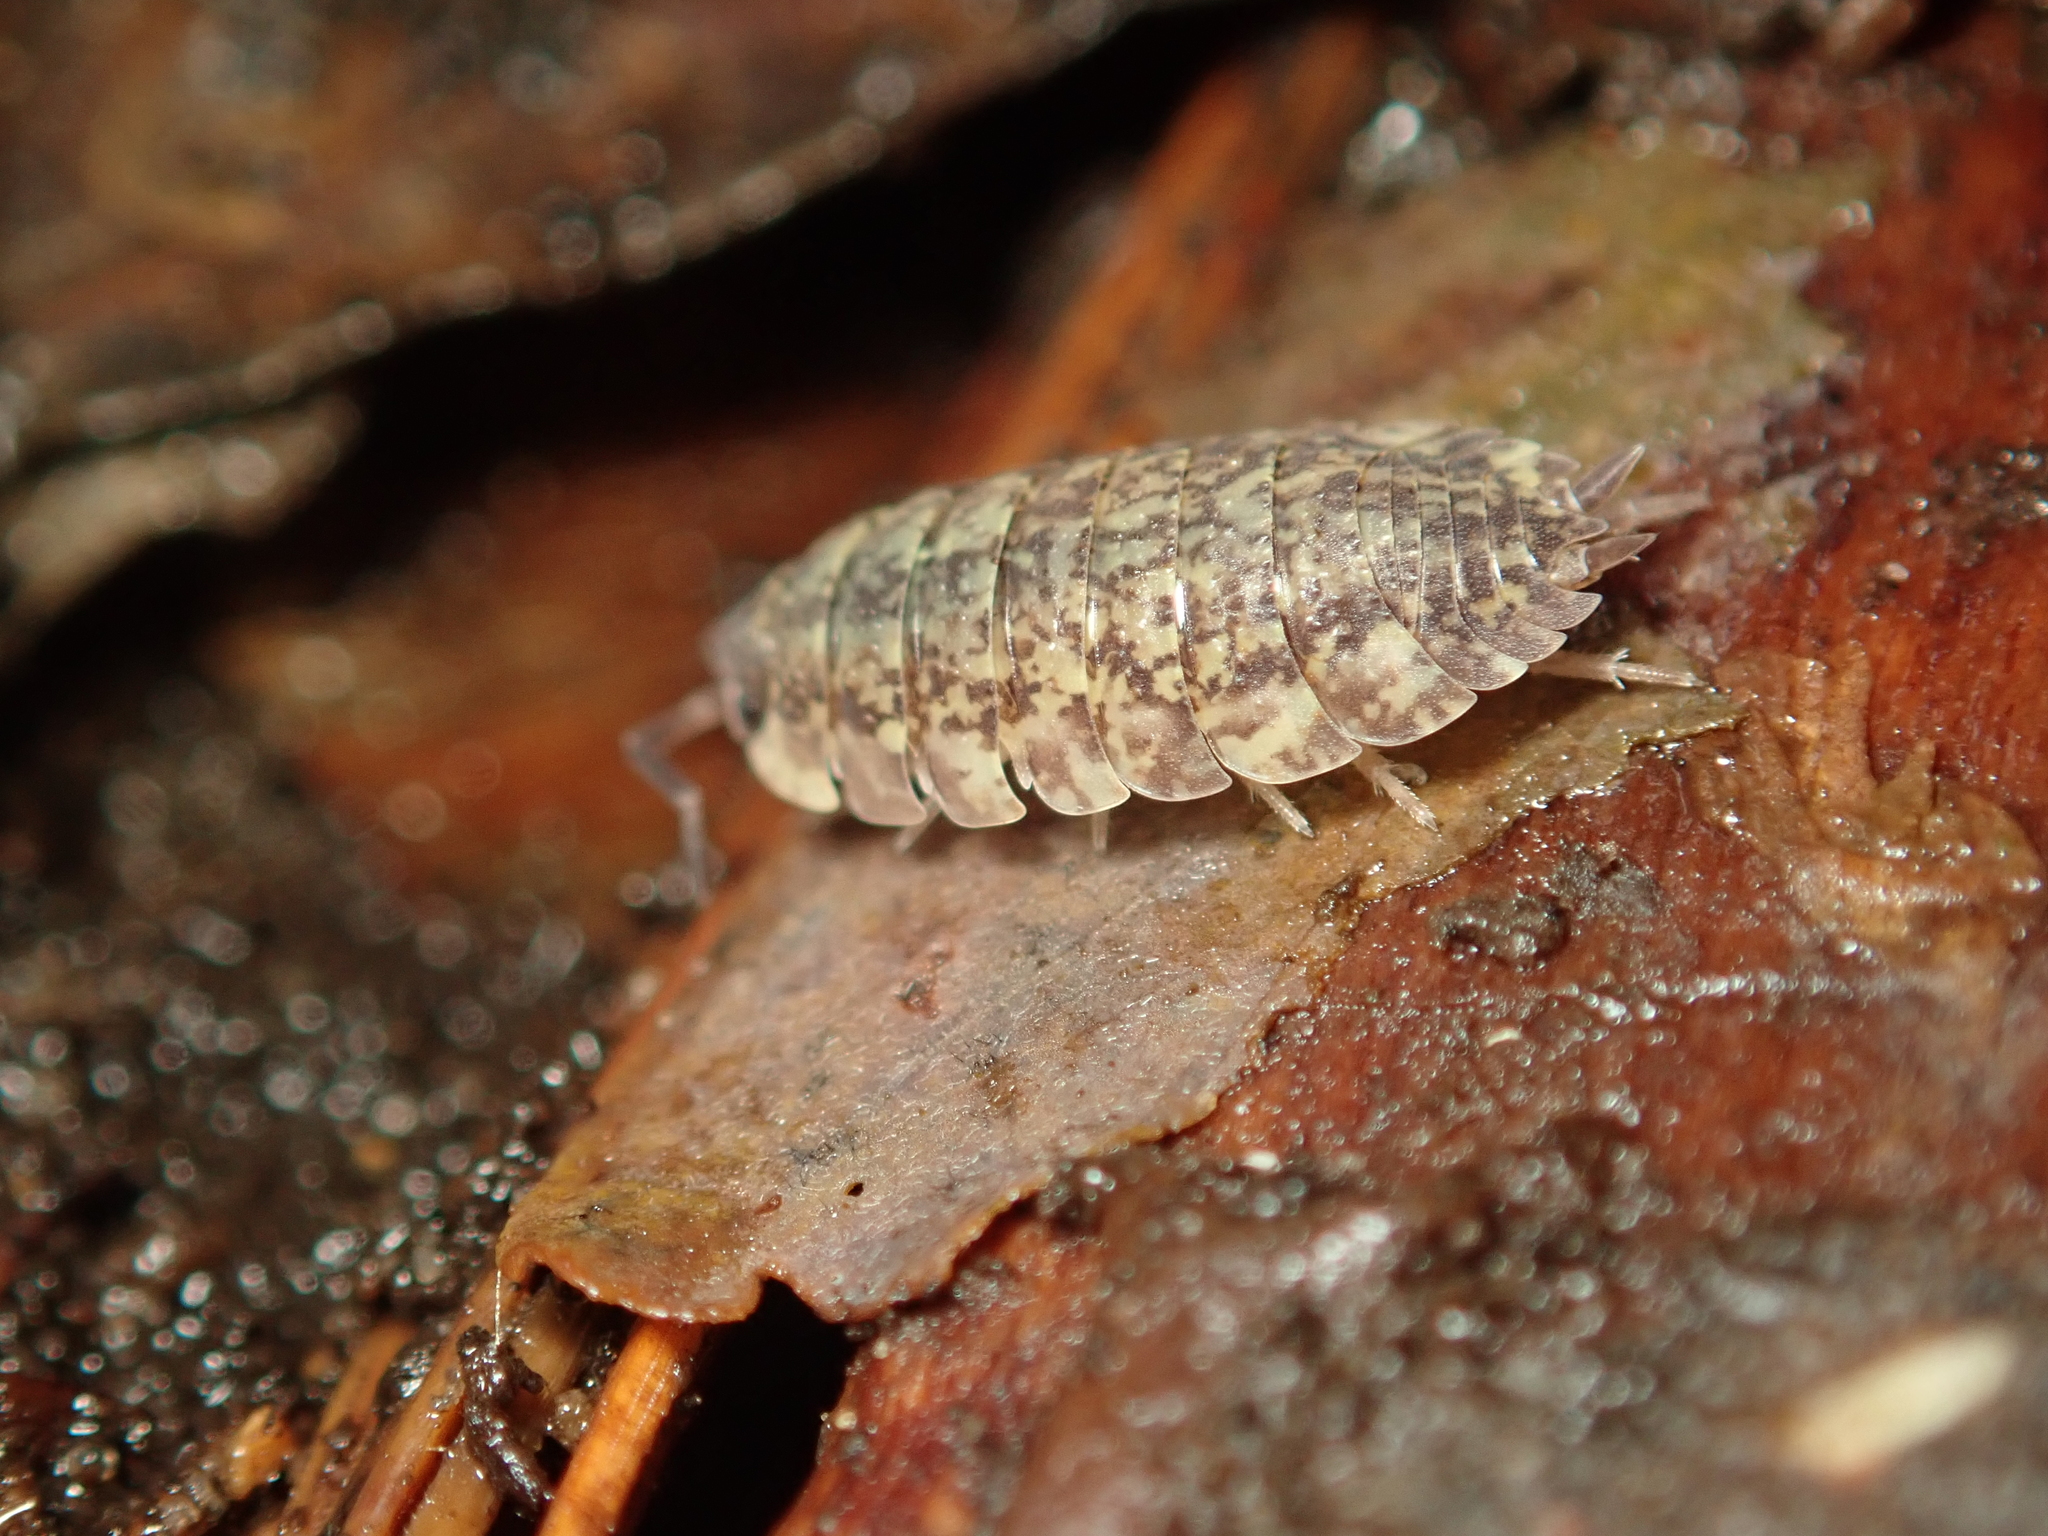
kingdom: Animalia
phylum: Arthropoda
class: Malacostraca
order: Isopoda
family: Porcellionidae
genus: Porcellio
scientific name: Porcellio scaber
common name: Common rough woodlouse
